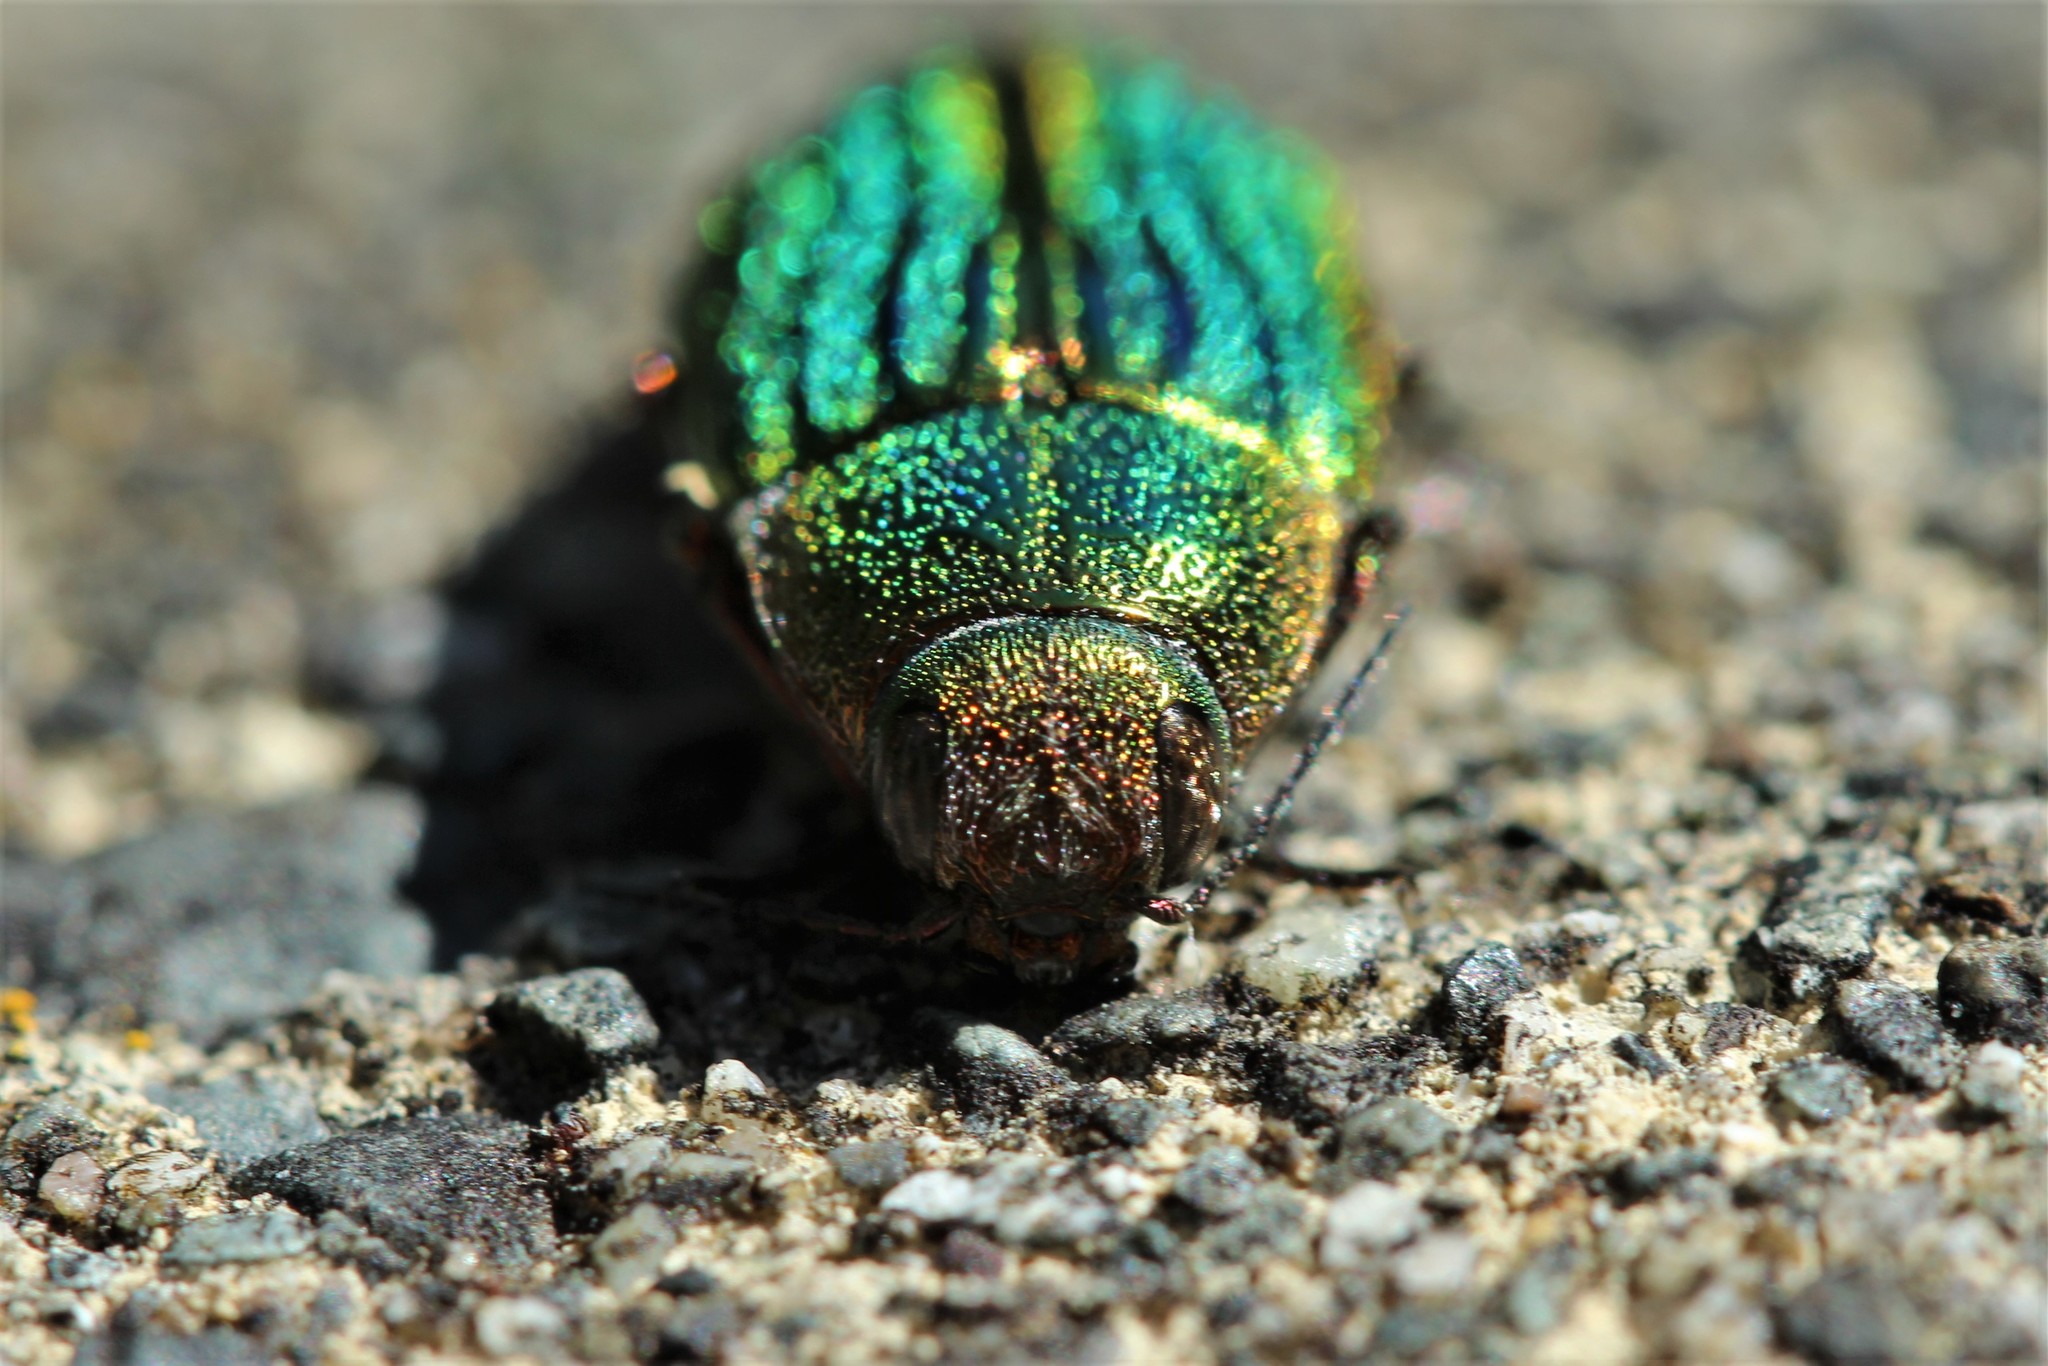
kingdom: Animalia
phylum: Arthropoda
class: Insecta
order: Coleoptera
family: Buprestidae
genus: Buprestis
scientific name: Buprestis aurulenta
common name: Golden buprestid
